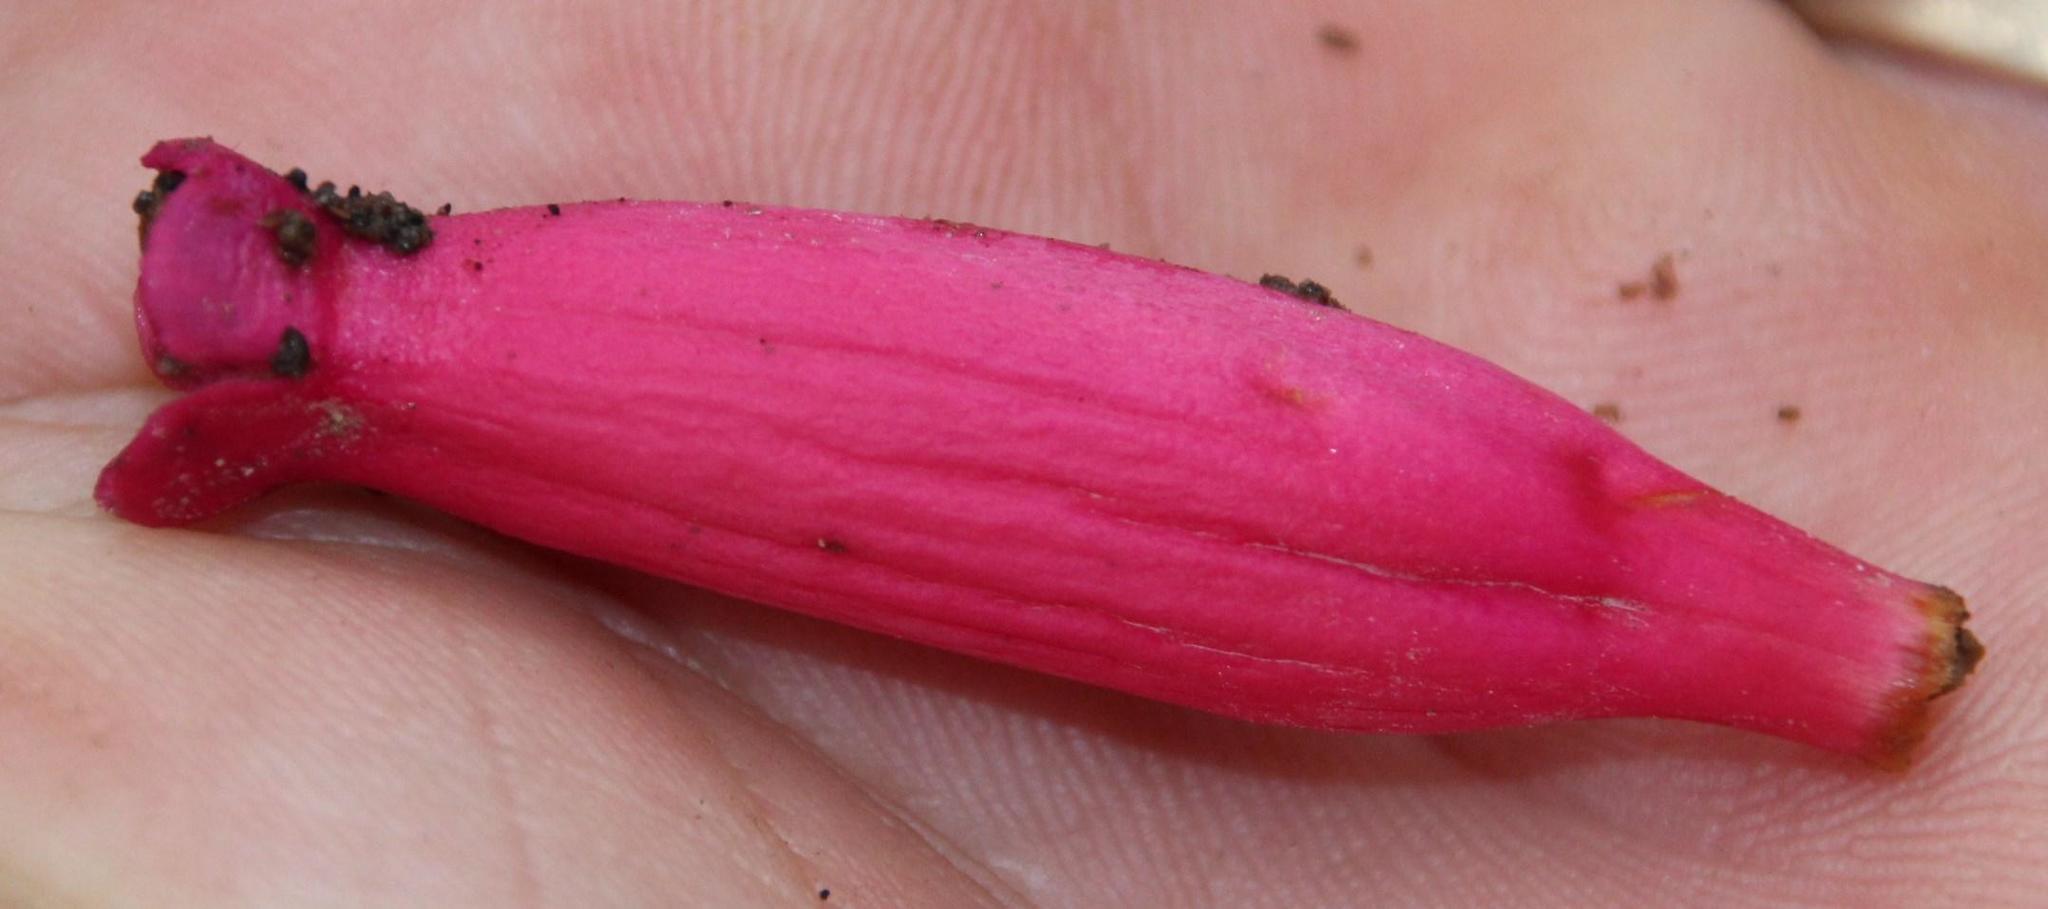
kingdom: Plantae
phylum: Tracheophyta
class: Magnoliopsida
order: Lamiales
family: Bignoniaceae
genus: Campsidium
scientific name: Campsidium valdivianum
